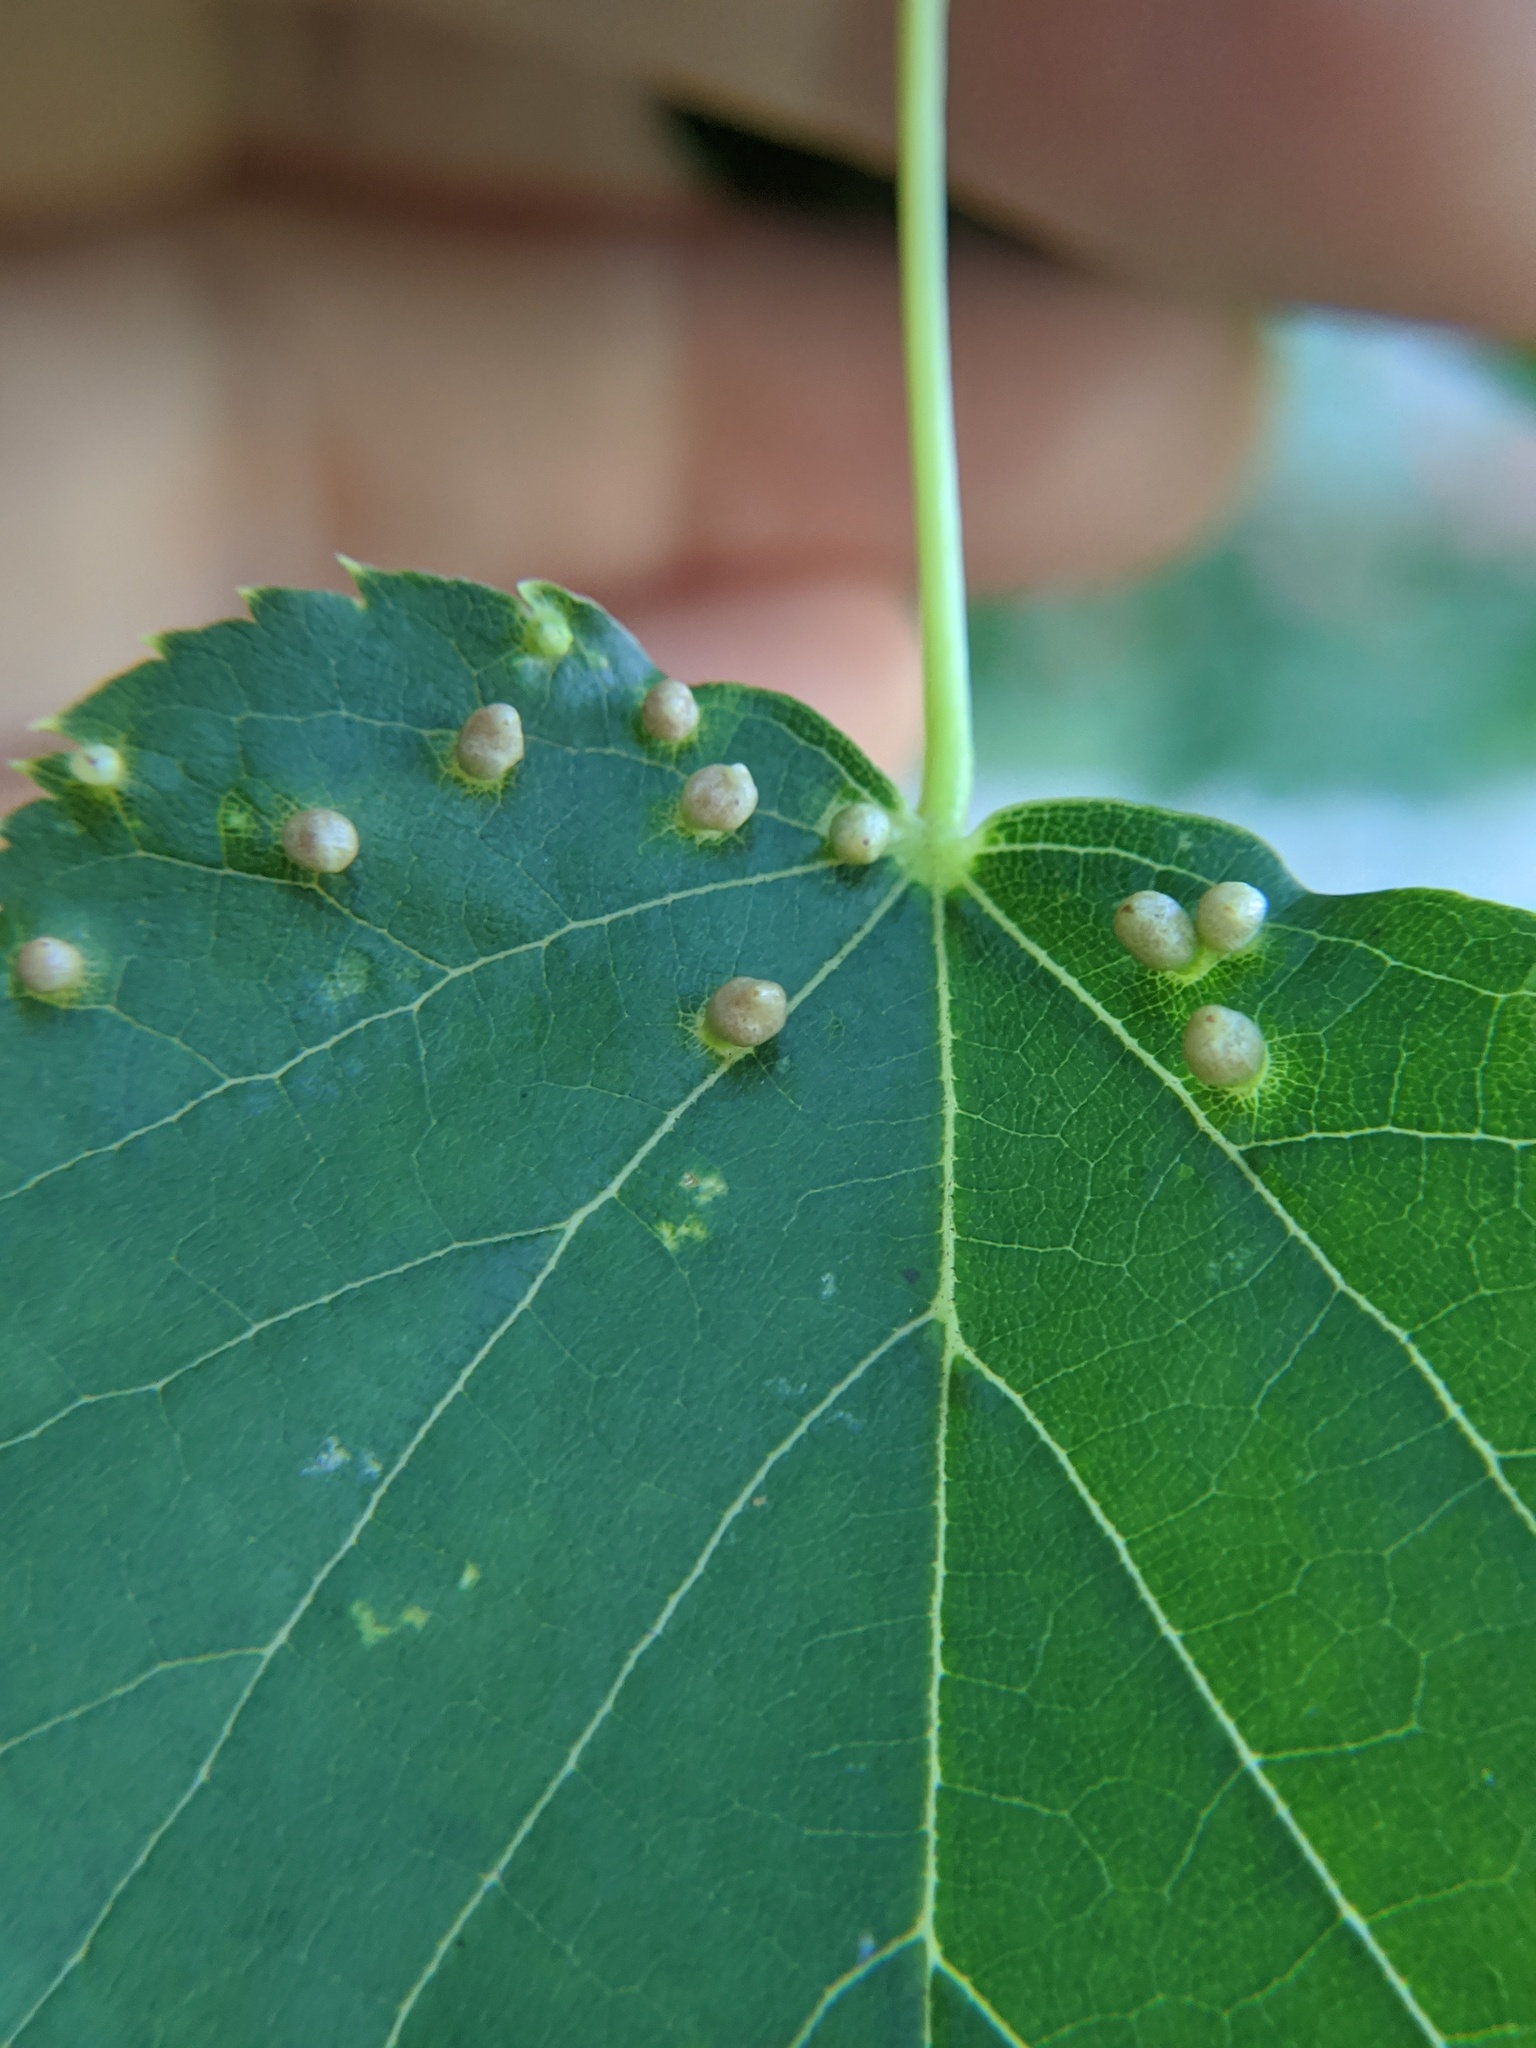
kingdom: Animalia
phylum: Arthropoda
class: Arachnida
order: Trombidiformes
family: Eriophyidae
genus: Eriophyes
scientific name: Eriophyes tiliae
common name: Red nail gall mite
